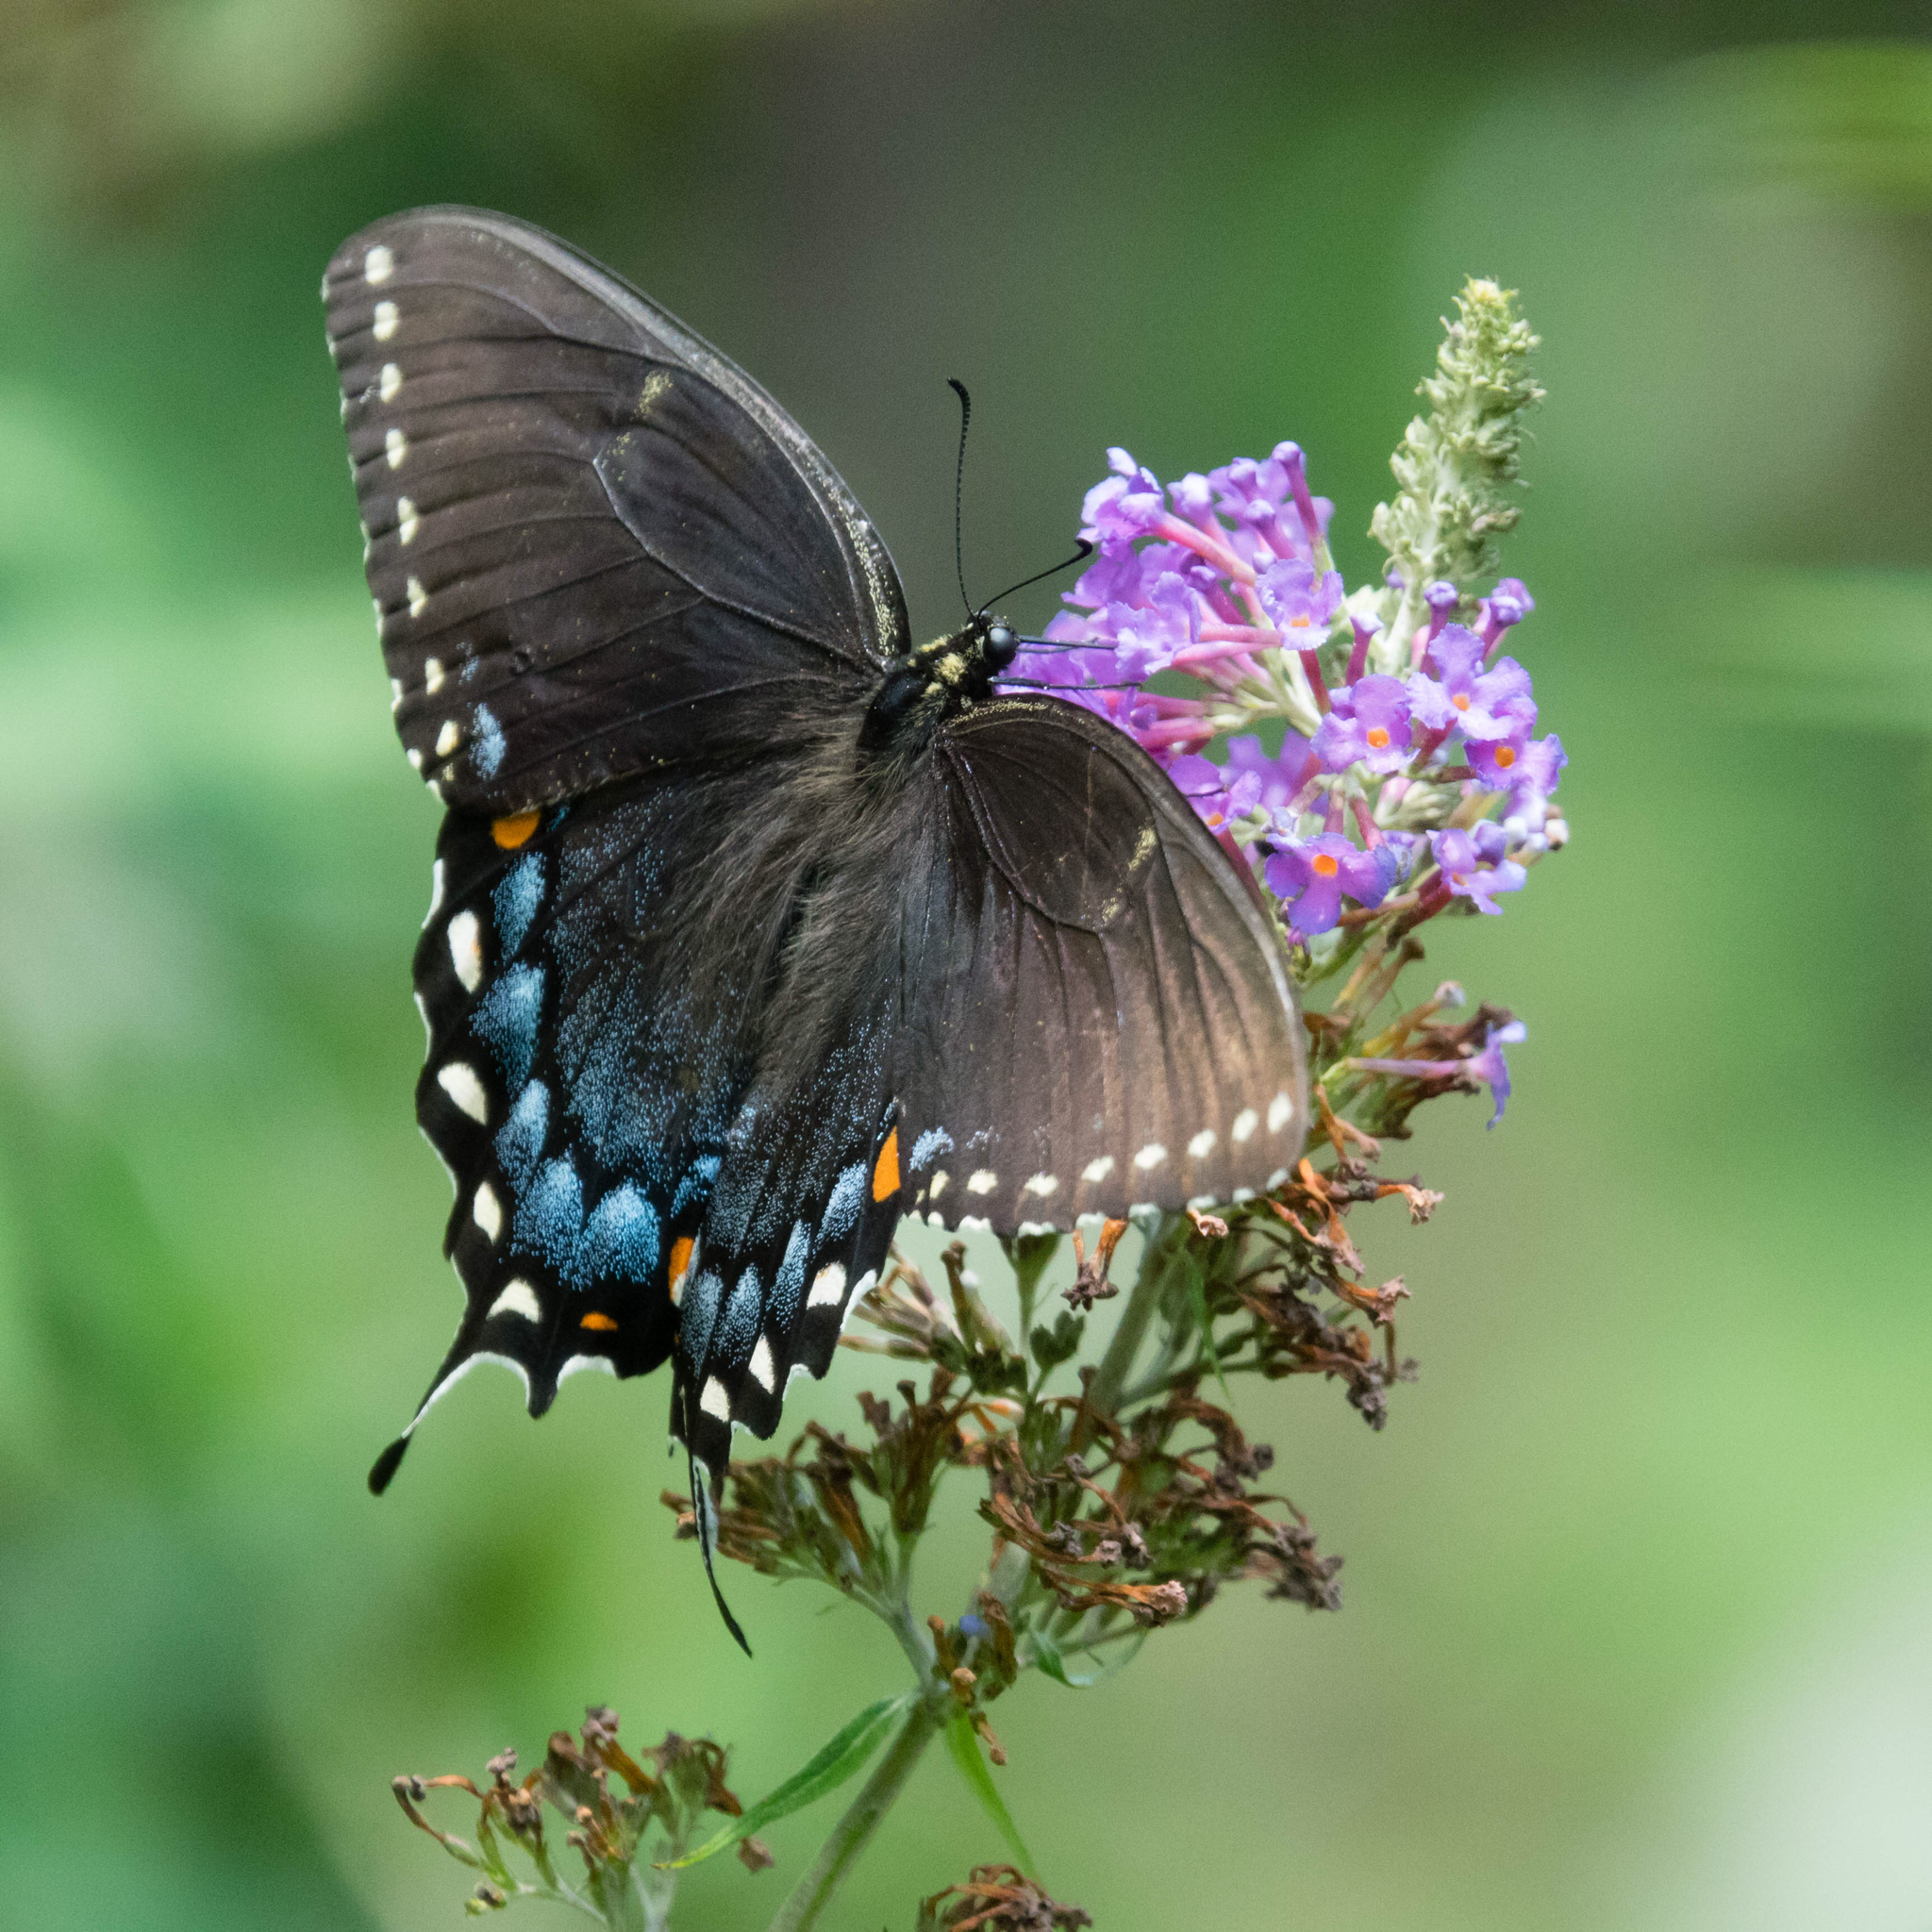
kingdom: Animalia
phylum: Arthropoda
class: Insecta
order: Lepidoptera
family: Papilionidae
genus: Papilio
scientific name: Papilio glaucus
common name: Tiger swallowtail
